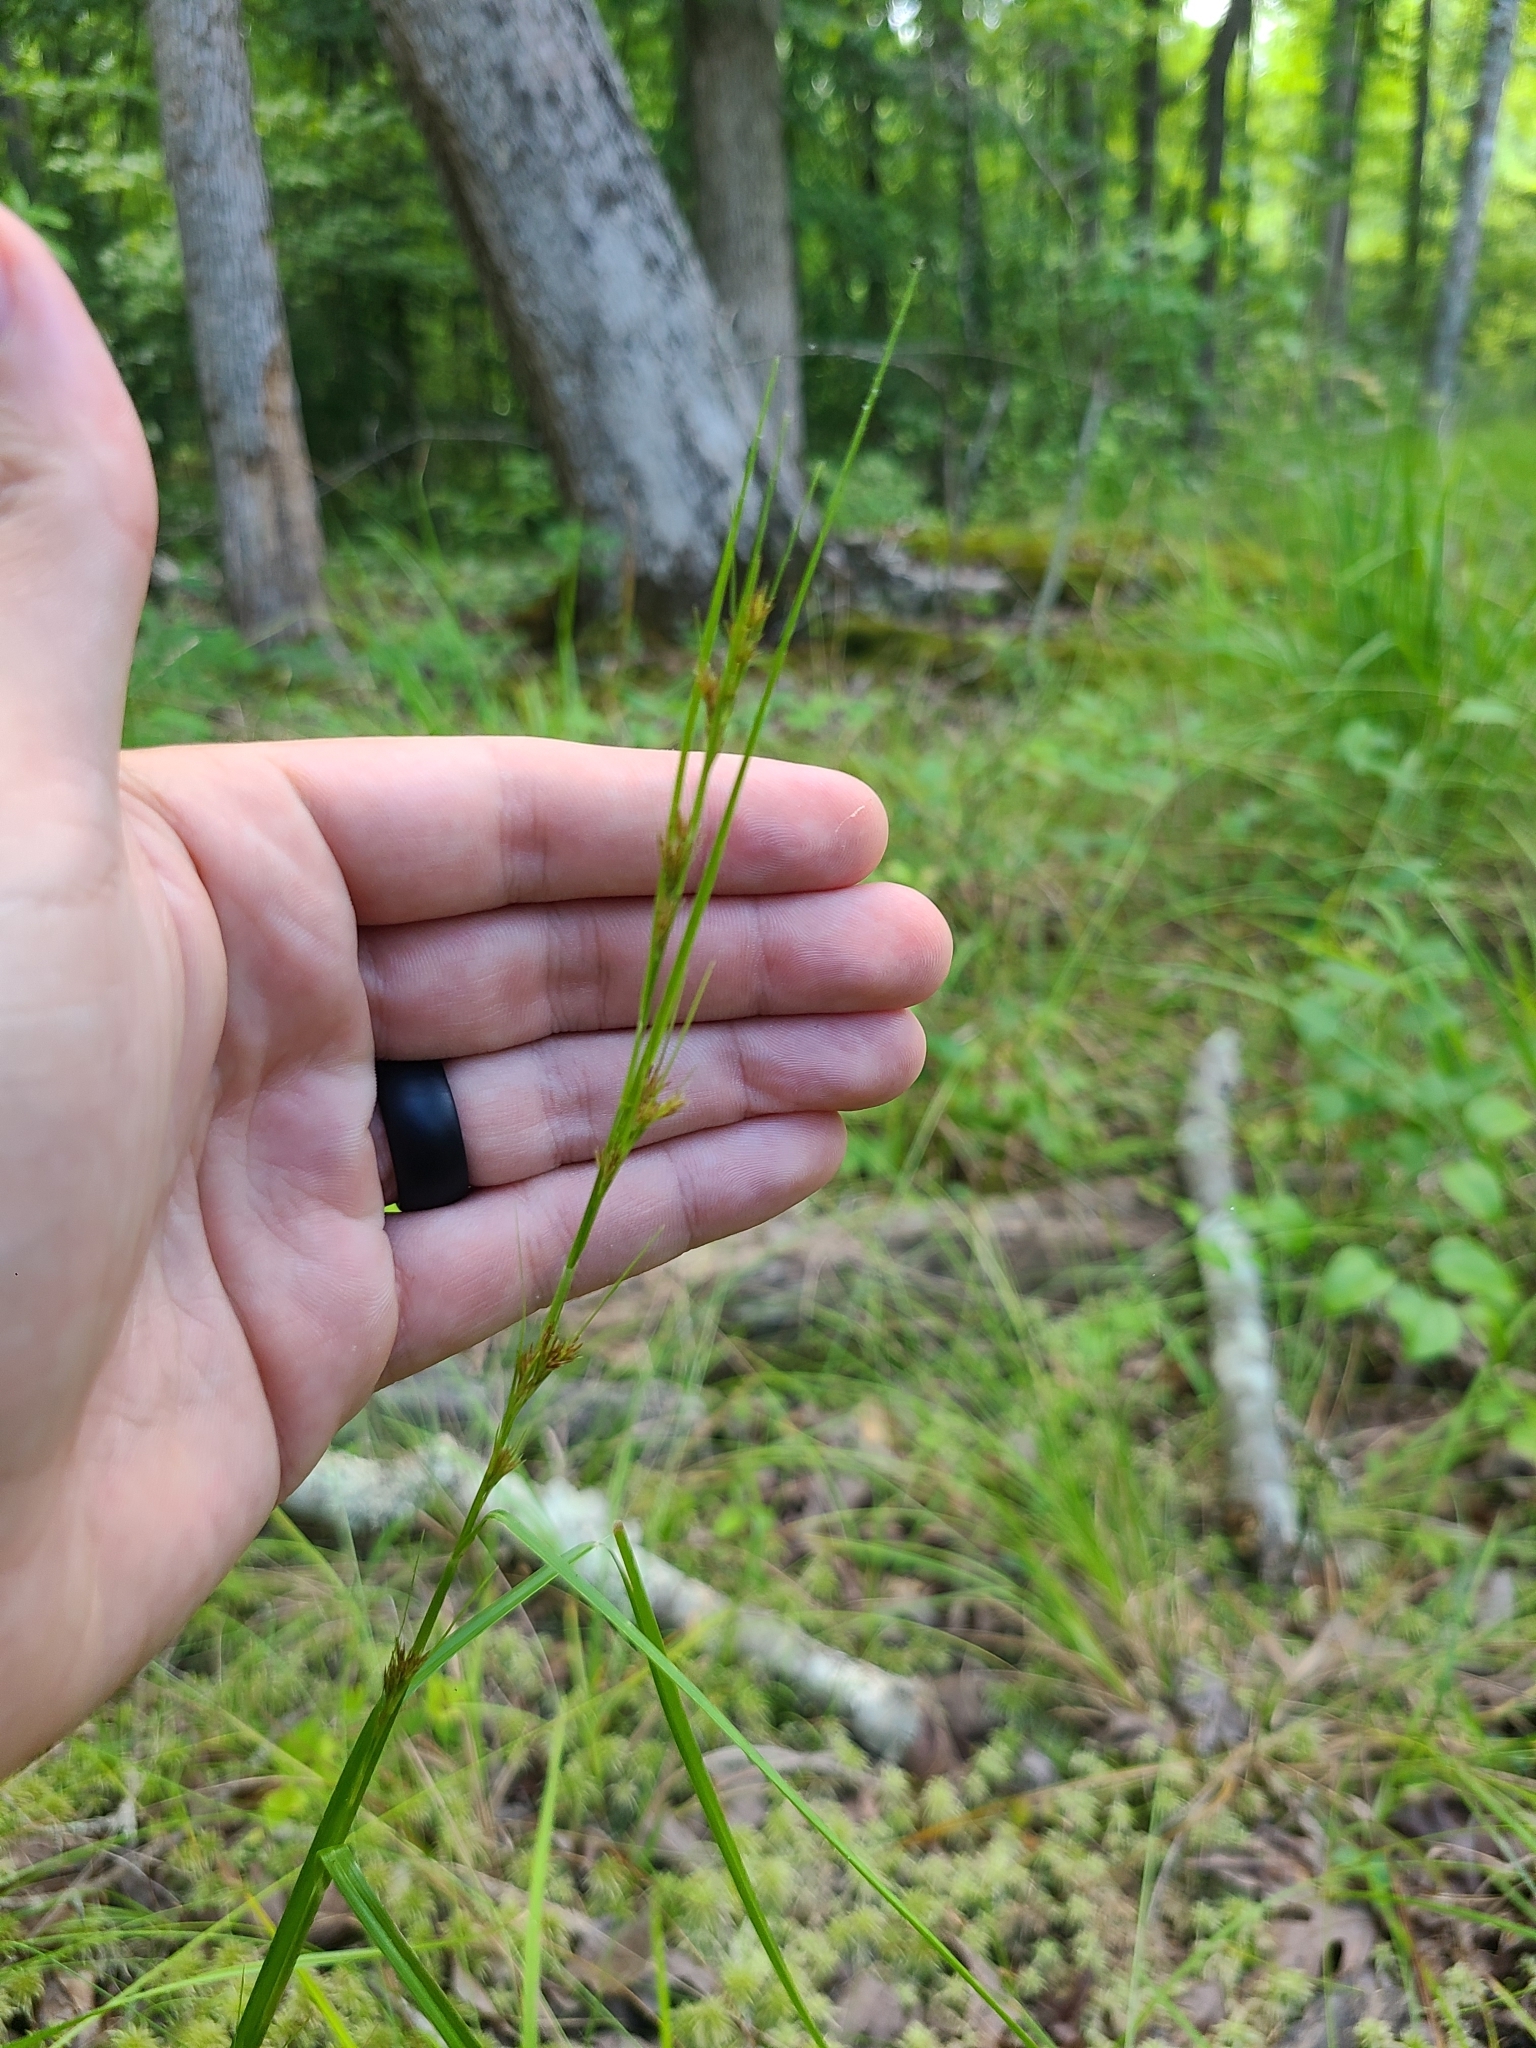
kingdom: Plantae
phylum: Tracheophyta
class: Liliopsida
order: Poales
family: Cyperaceae
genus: Rhynchospora
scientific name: Rhynchospora
